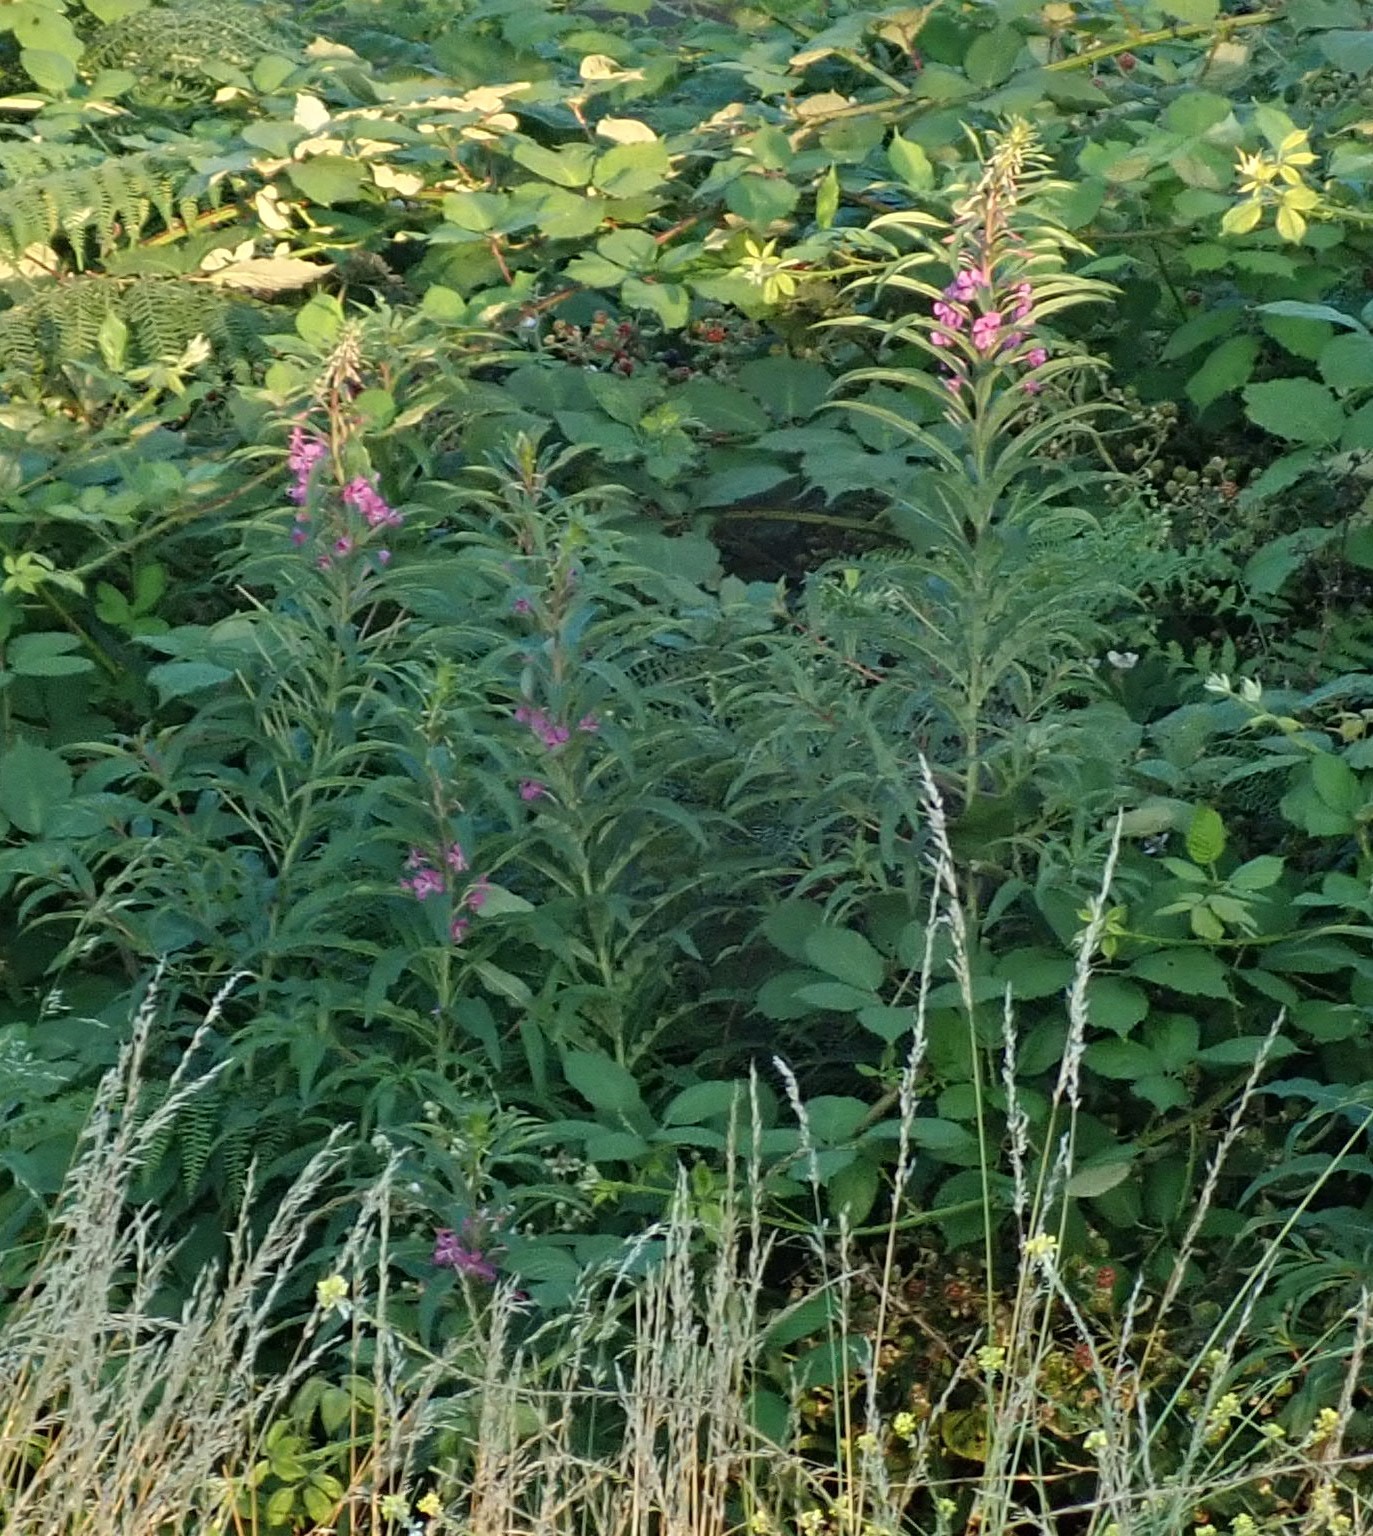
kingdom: Plantae
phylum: Tracheophyta
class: Magnoliopsida
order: Myrtales
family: Onagraceae
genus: Chamaenerion
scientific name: Chamaenerion angustifolium
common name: Fireweed
